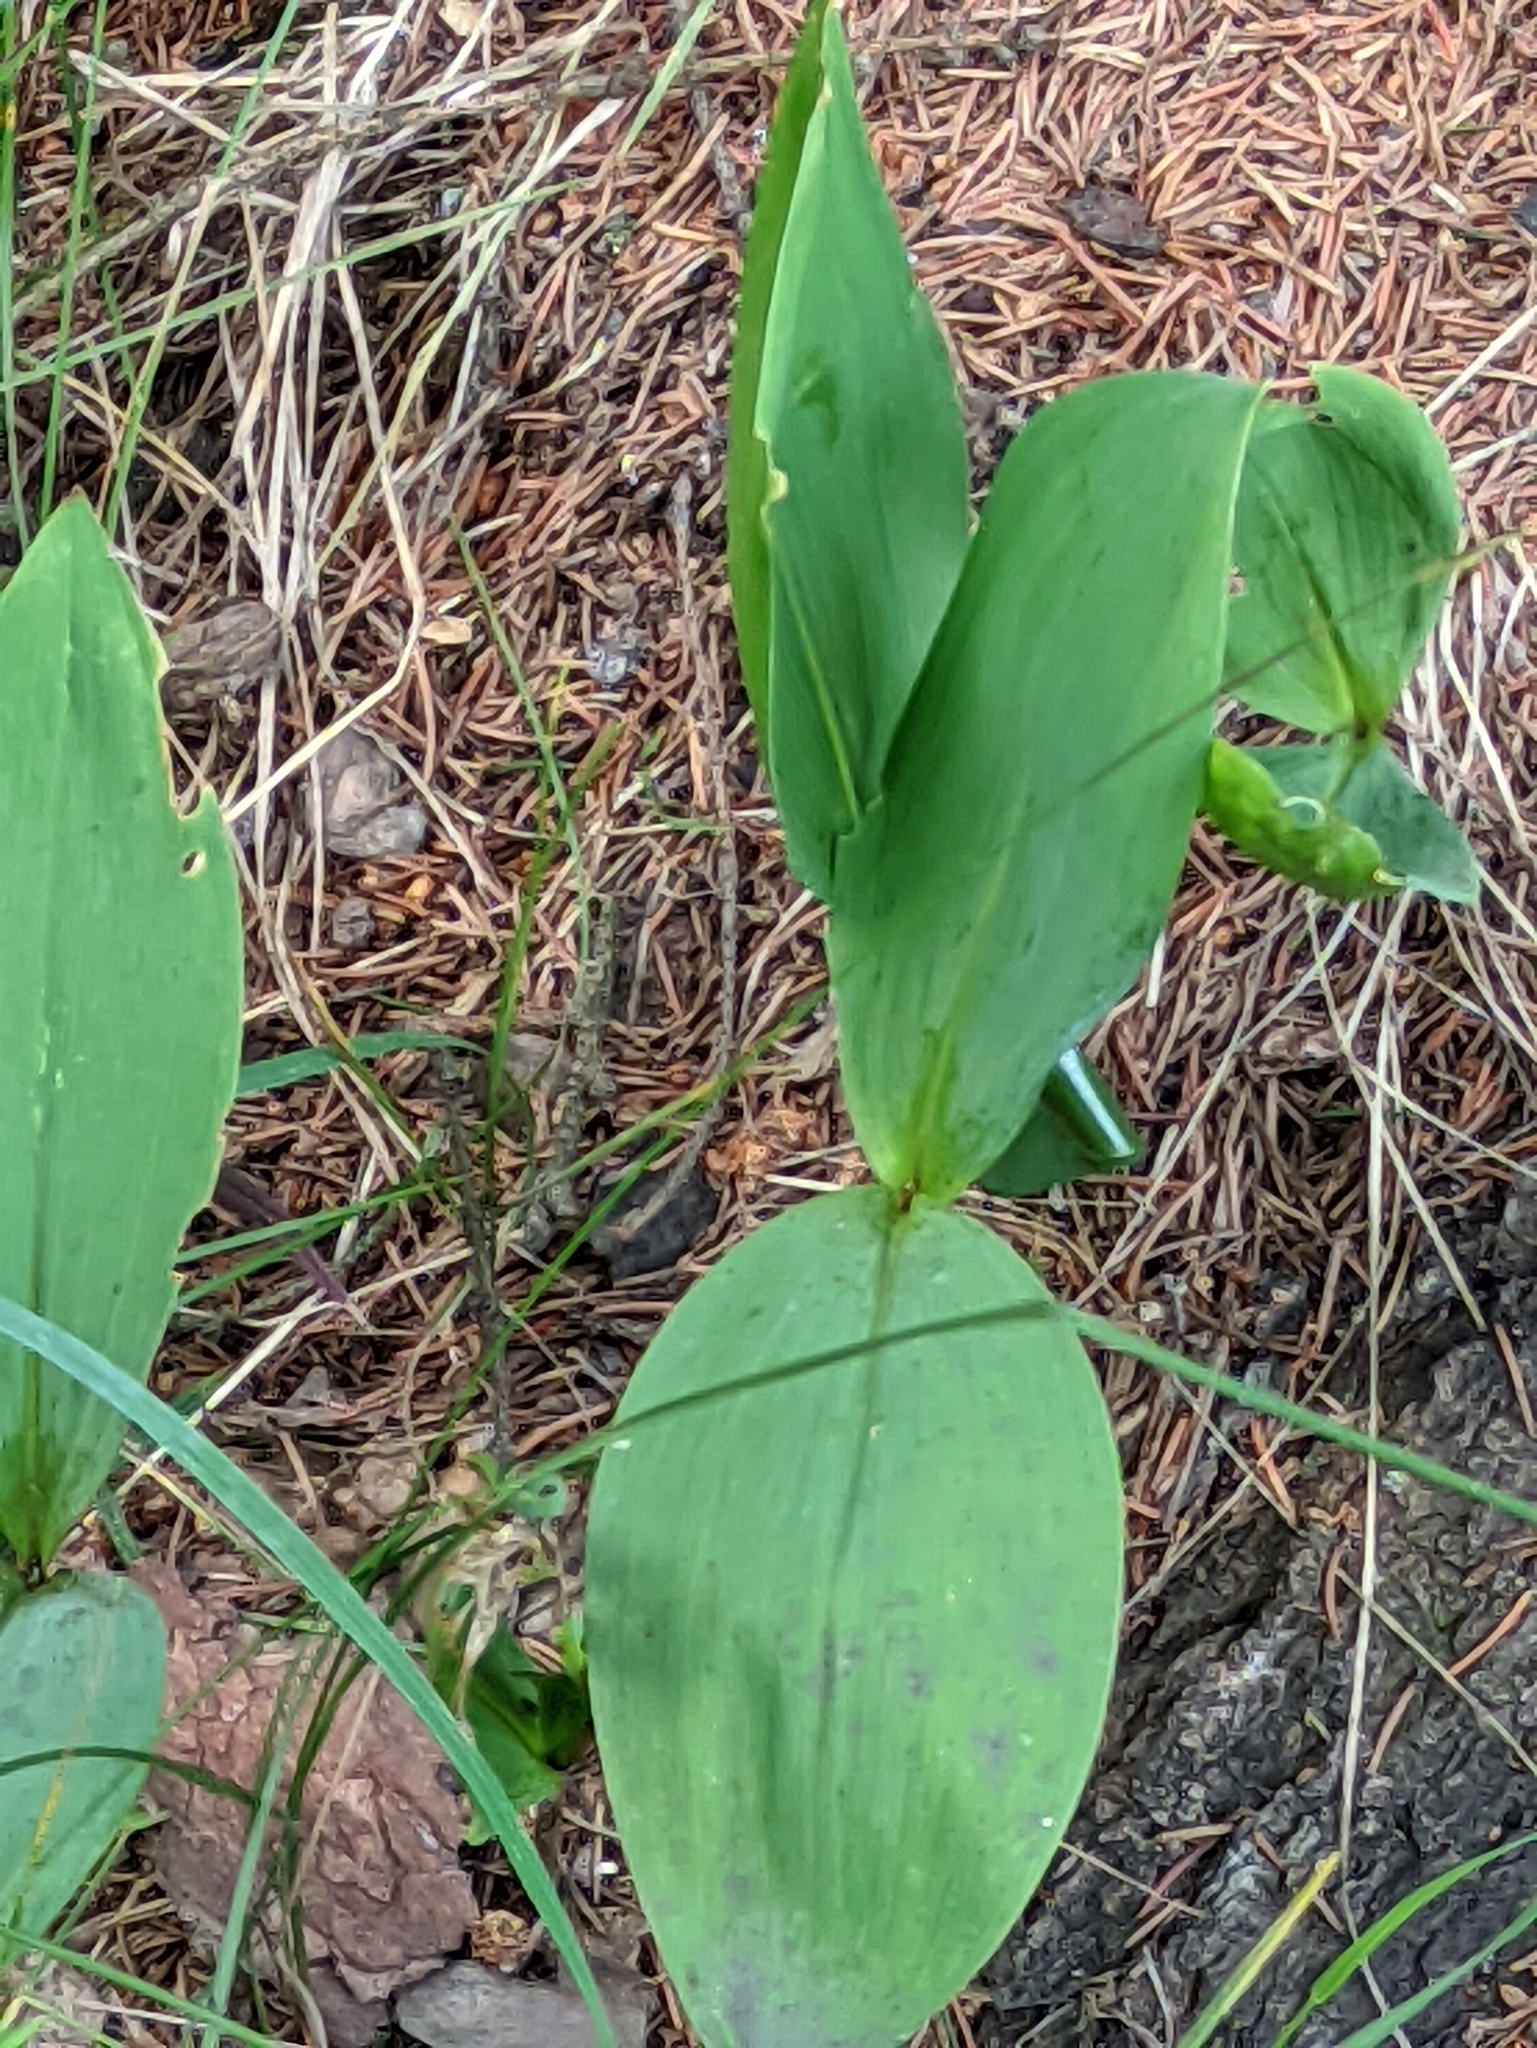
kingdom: Plantae
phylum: Tracheophyta
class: Liliopsida
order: Asparagales
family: Asparagaceae
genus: Convallaria
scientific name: Convallaria majalis
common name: Lily-of-the-valley
